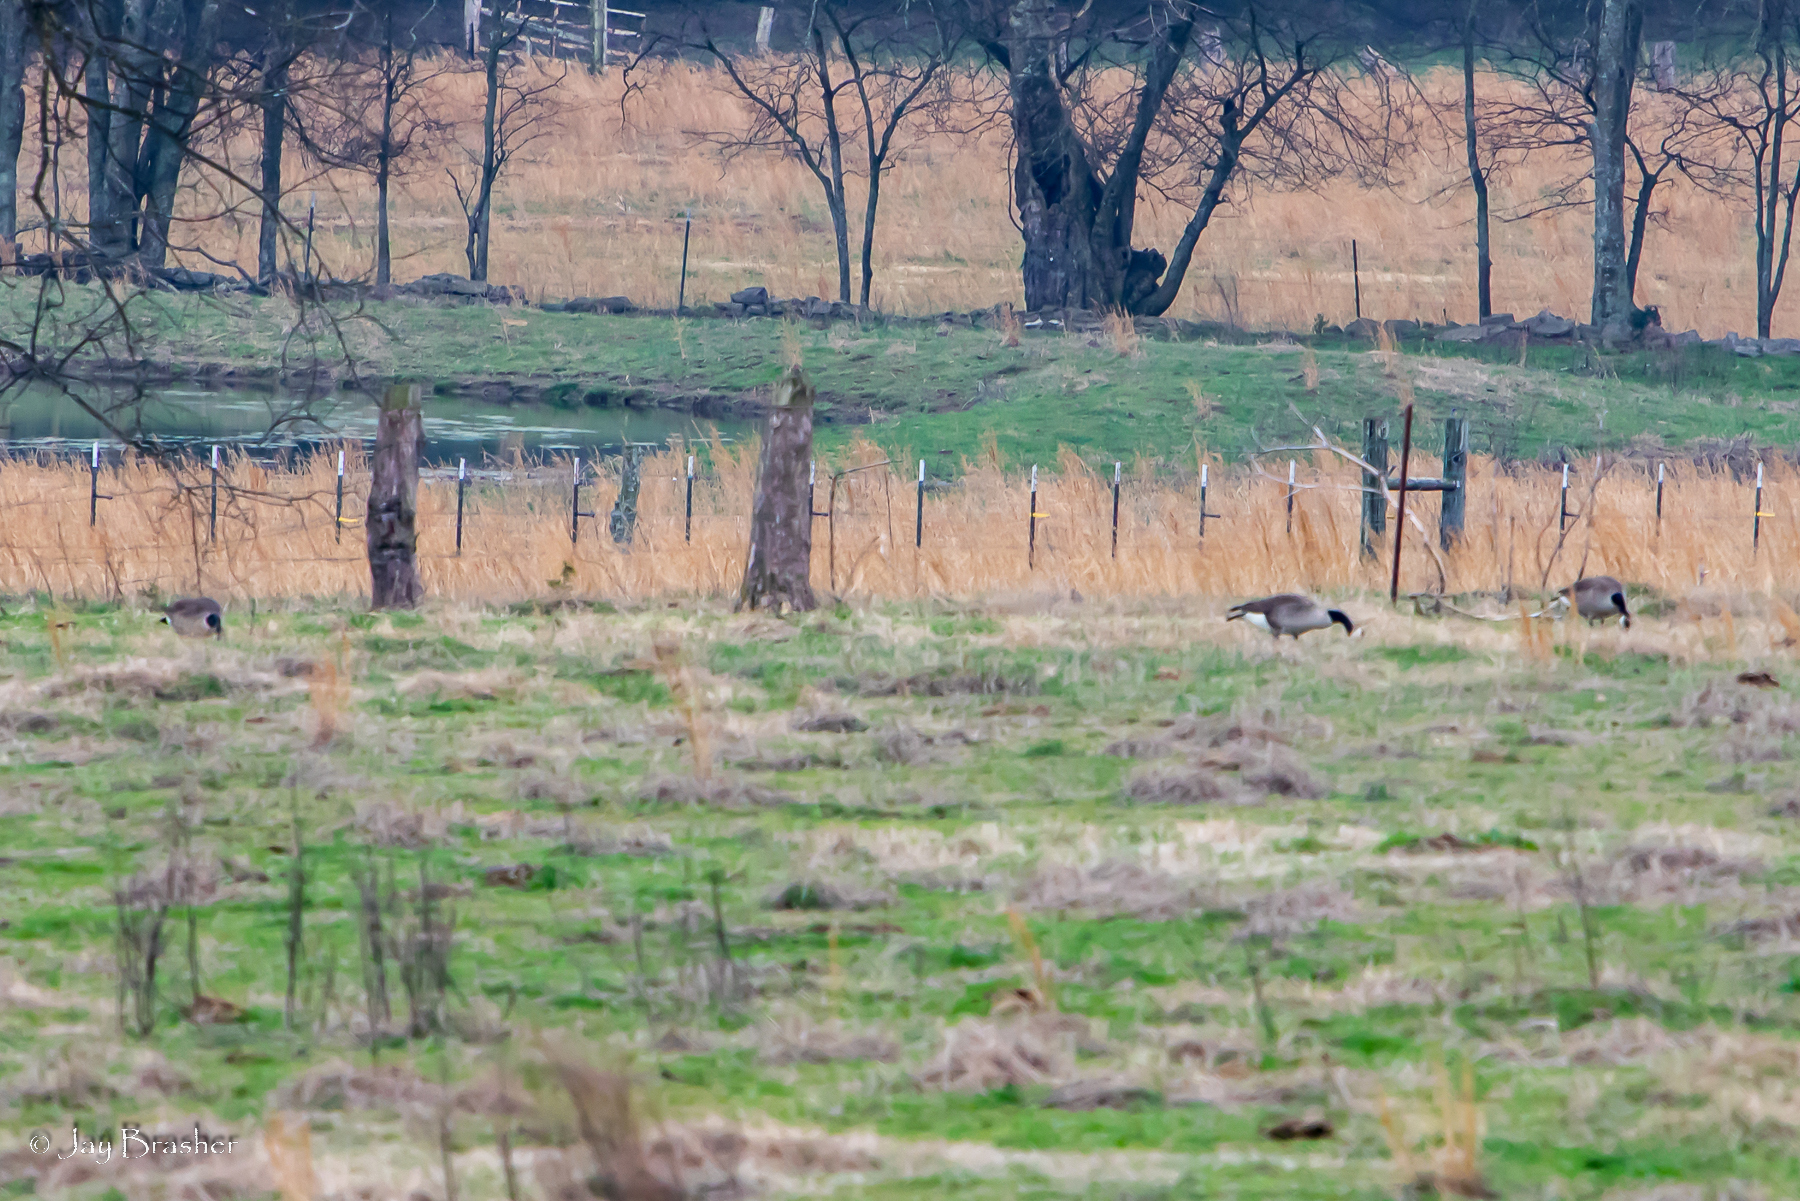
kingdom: Animalia
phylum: Chordata
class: Aves
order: Anseriformes
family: Anatidae
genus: Branta
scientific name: Branta canadensis
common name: Canada goose
